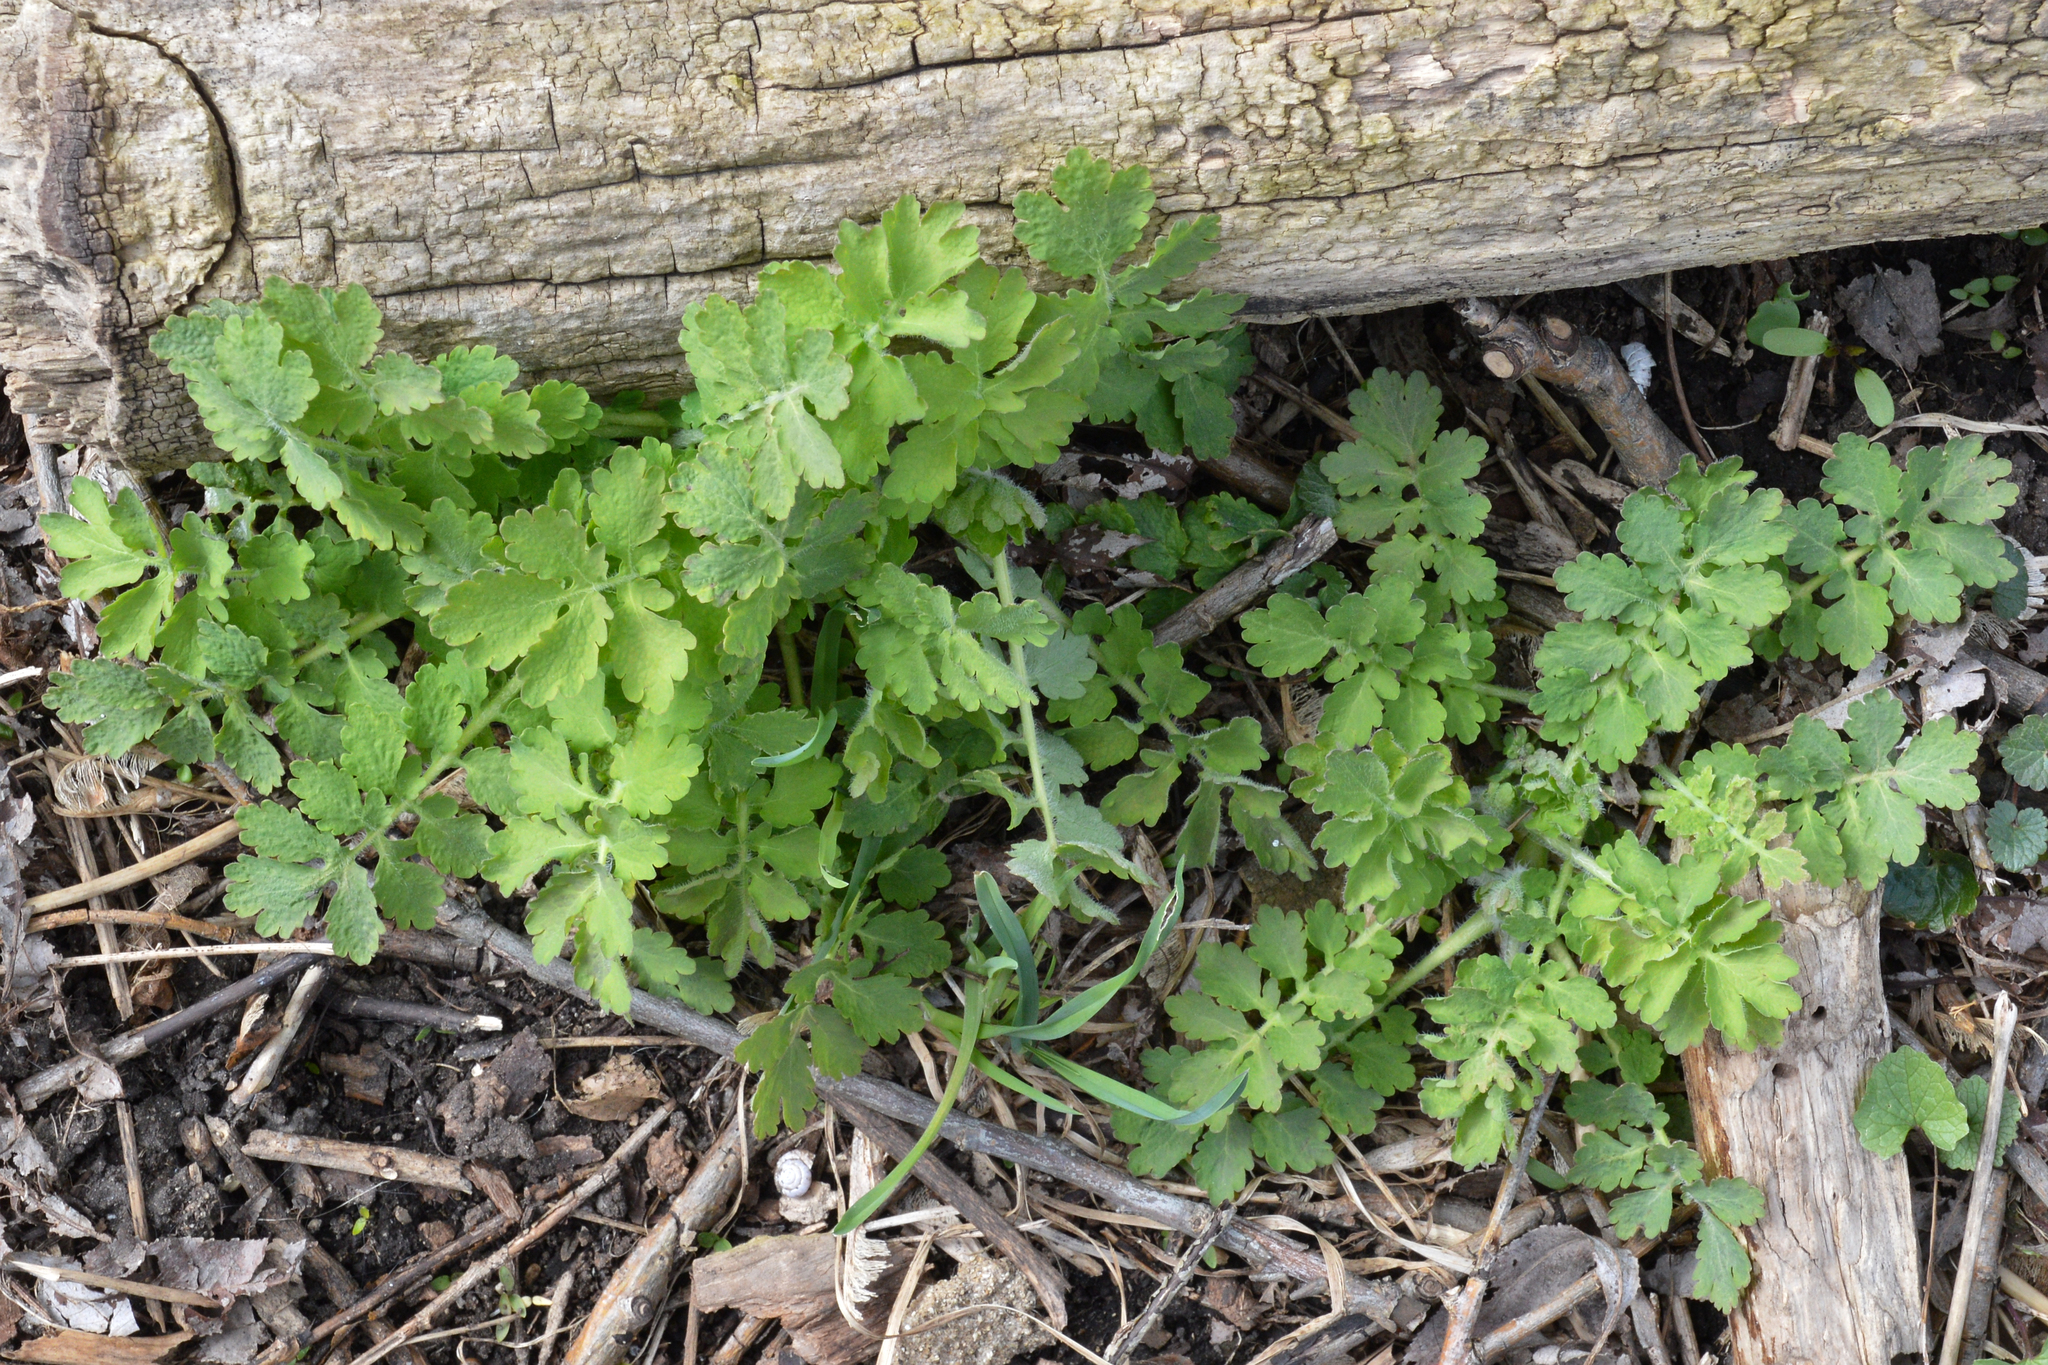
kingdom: Plantae
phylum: Tracheophyta
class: Magnoliopsida
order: Ranunculales
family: Papaveraceae
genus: Chelidonium
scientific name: Chelidonium majus
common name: Greater celandine
